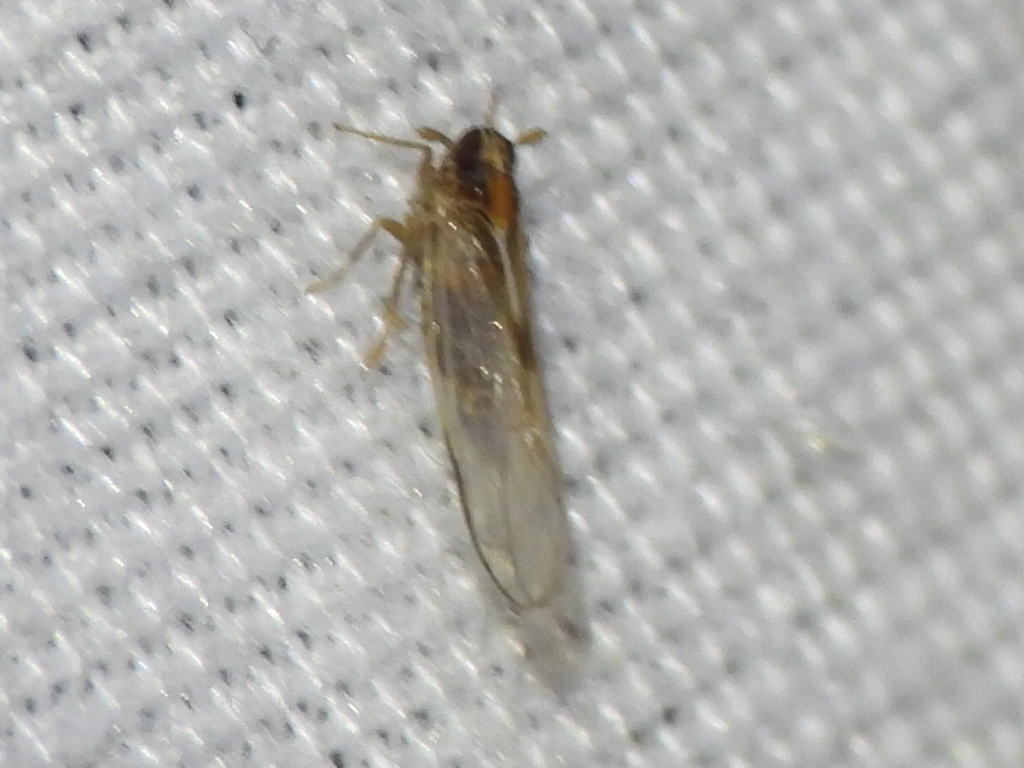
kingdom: Animalia
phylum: Arthropoda
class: Insecta
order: Hemiptera
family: Delphacidae
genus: Muellerianella
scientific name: Muellerianella laminalis
